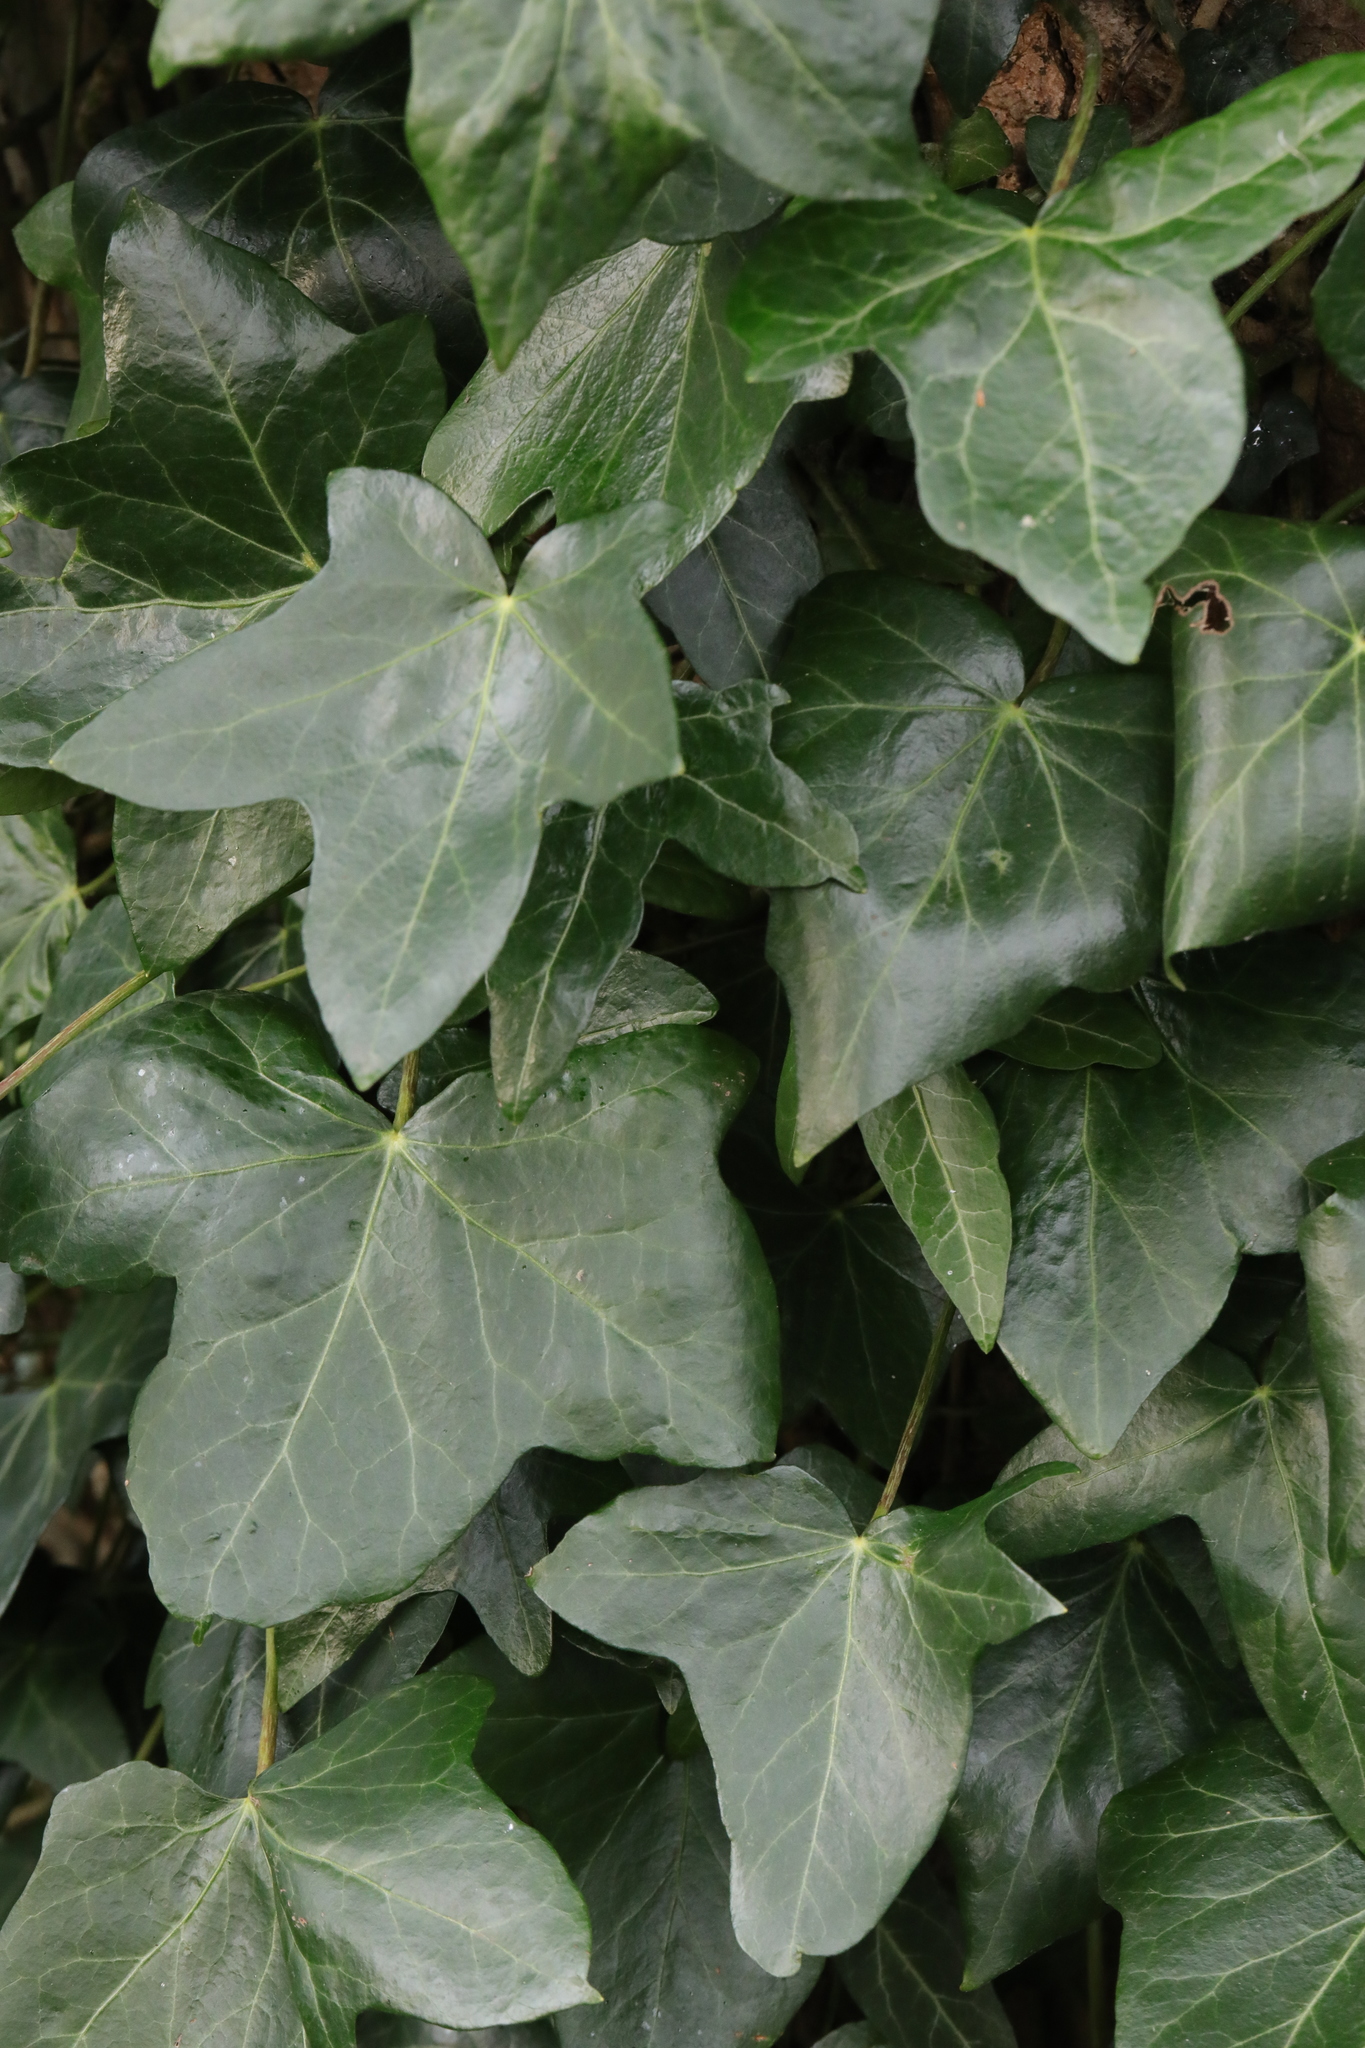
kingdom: Plantae
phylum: Tracheophyta
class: Magnoliopsida
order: Apiales
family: Araliaceae
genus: Hedera
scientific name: Hedera helix
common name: Ivy
